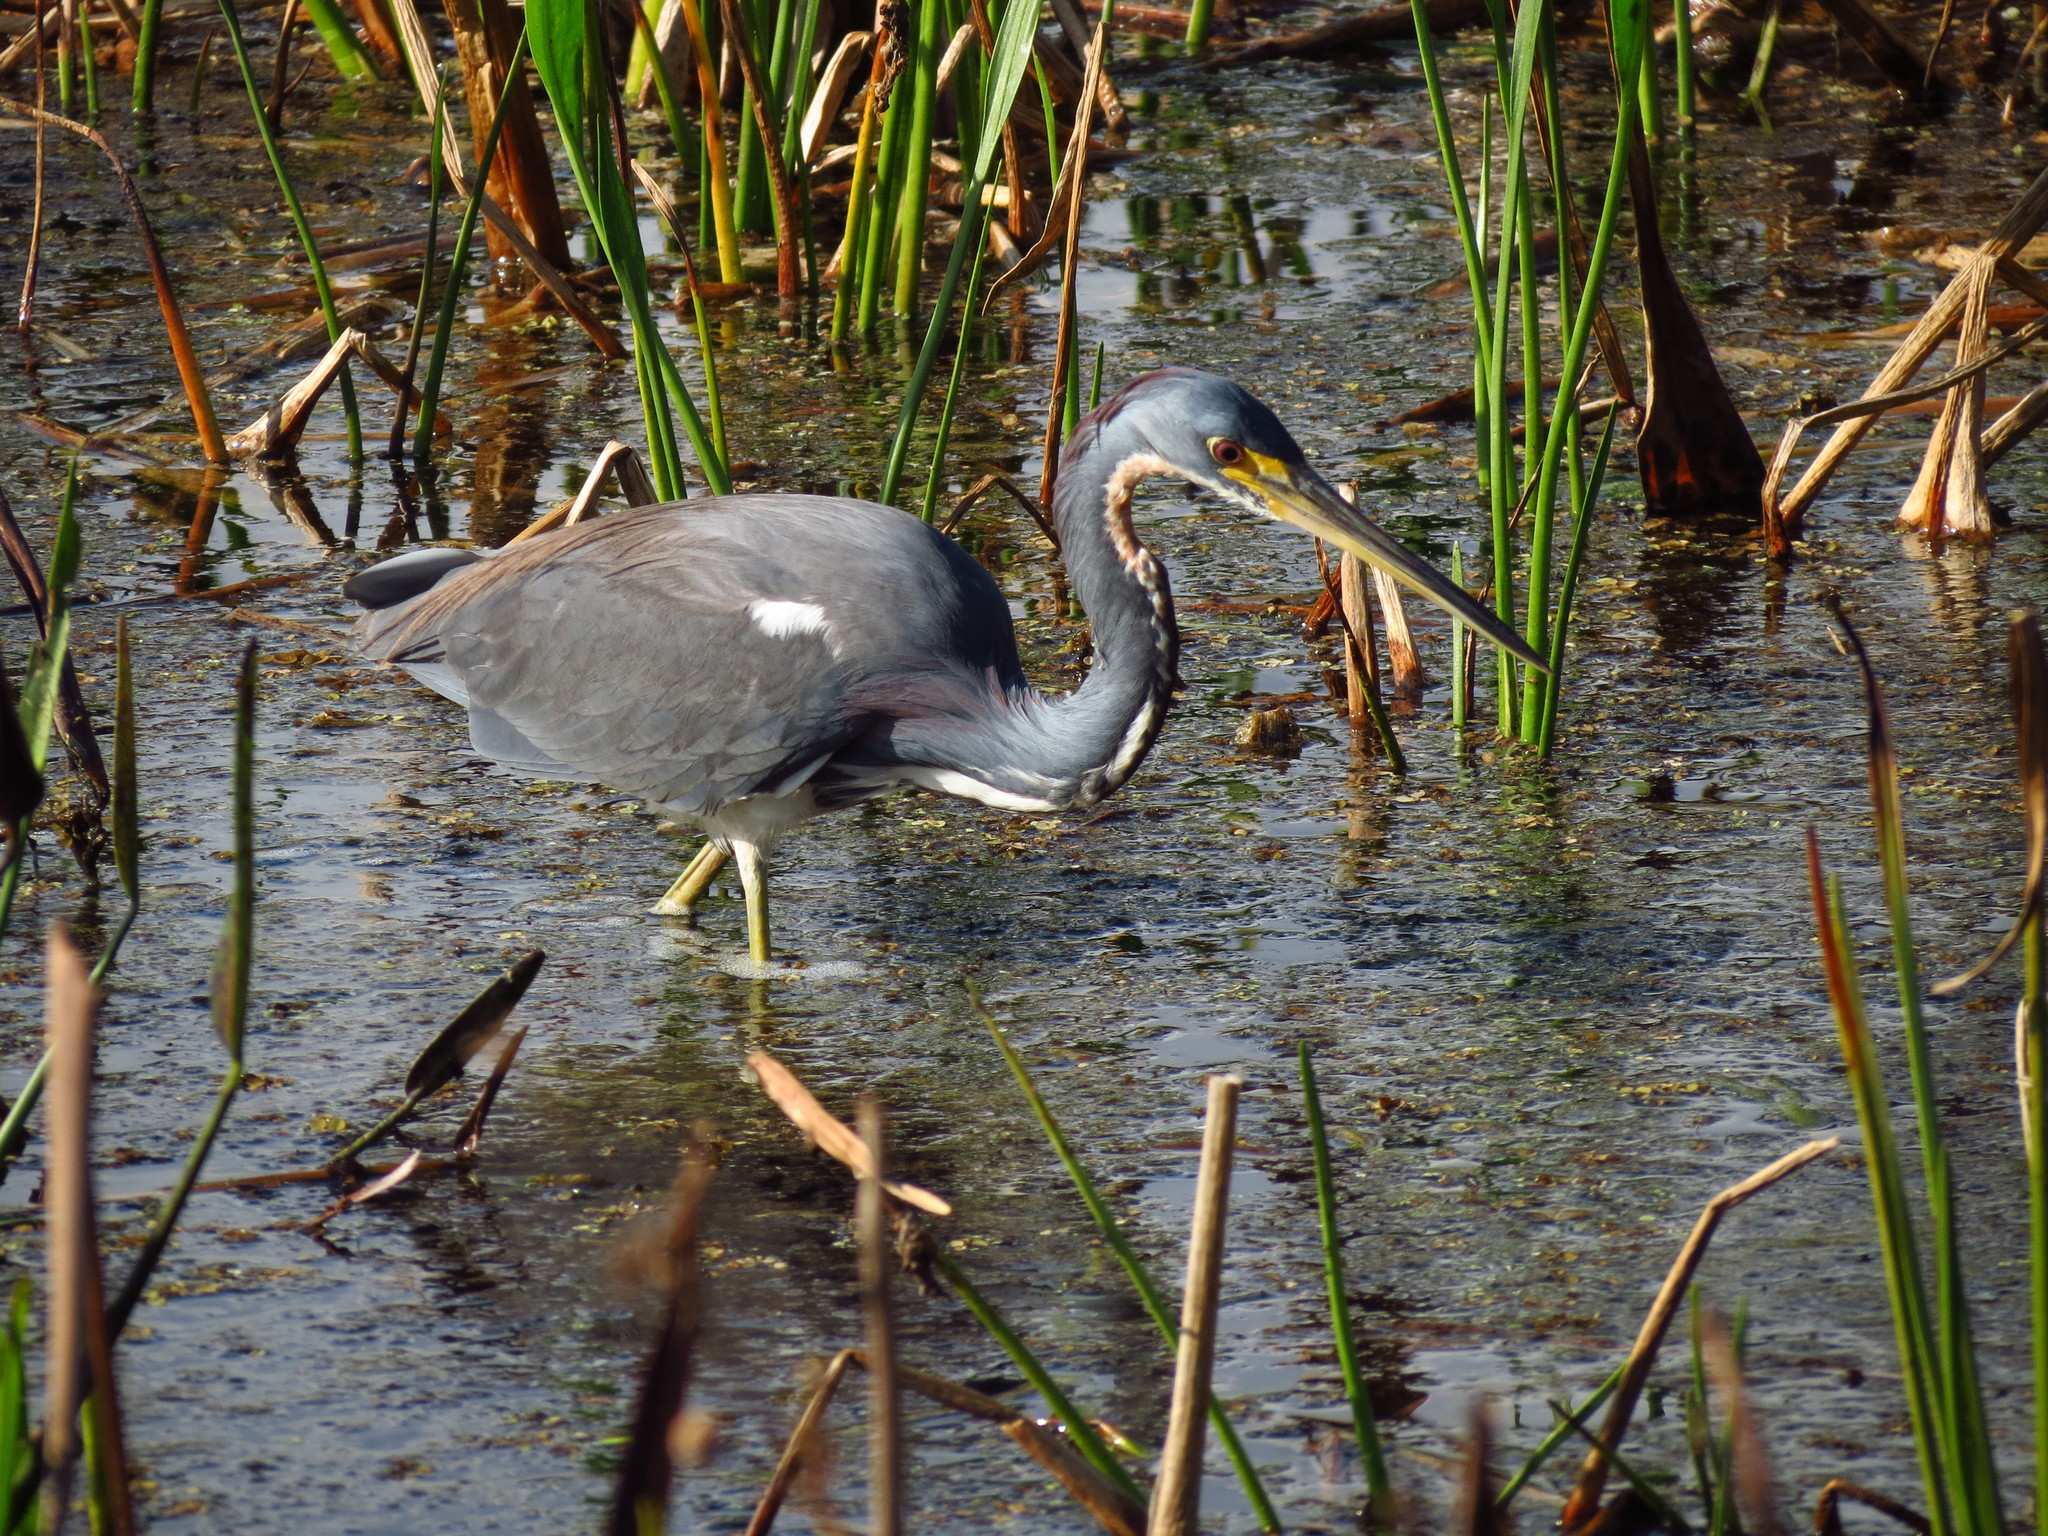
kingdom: Animalia
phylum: Chordata
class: Aves
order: Pelecaniformes
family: Ardeidae
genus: Egretta
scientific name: Egretta tricolor
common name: Tricolored heron
